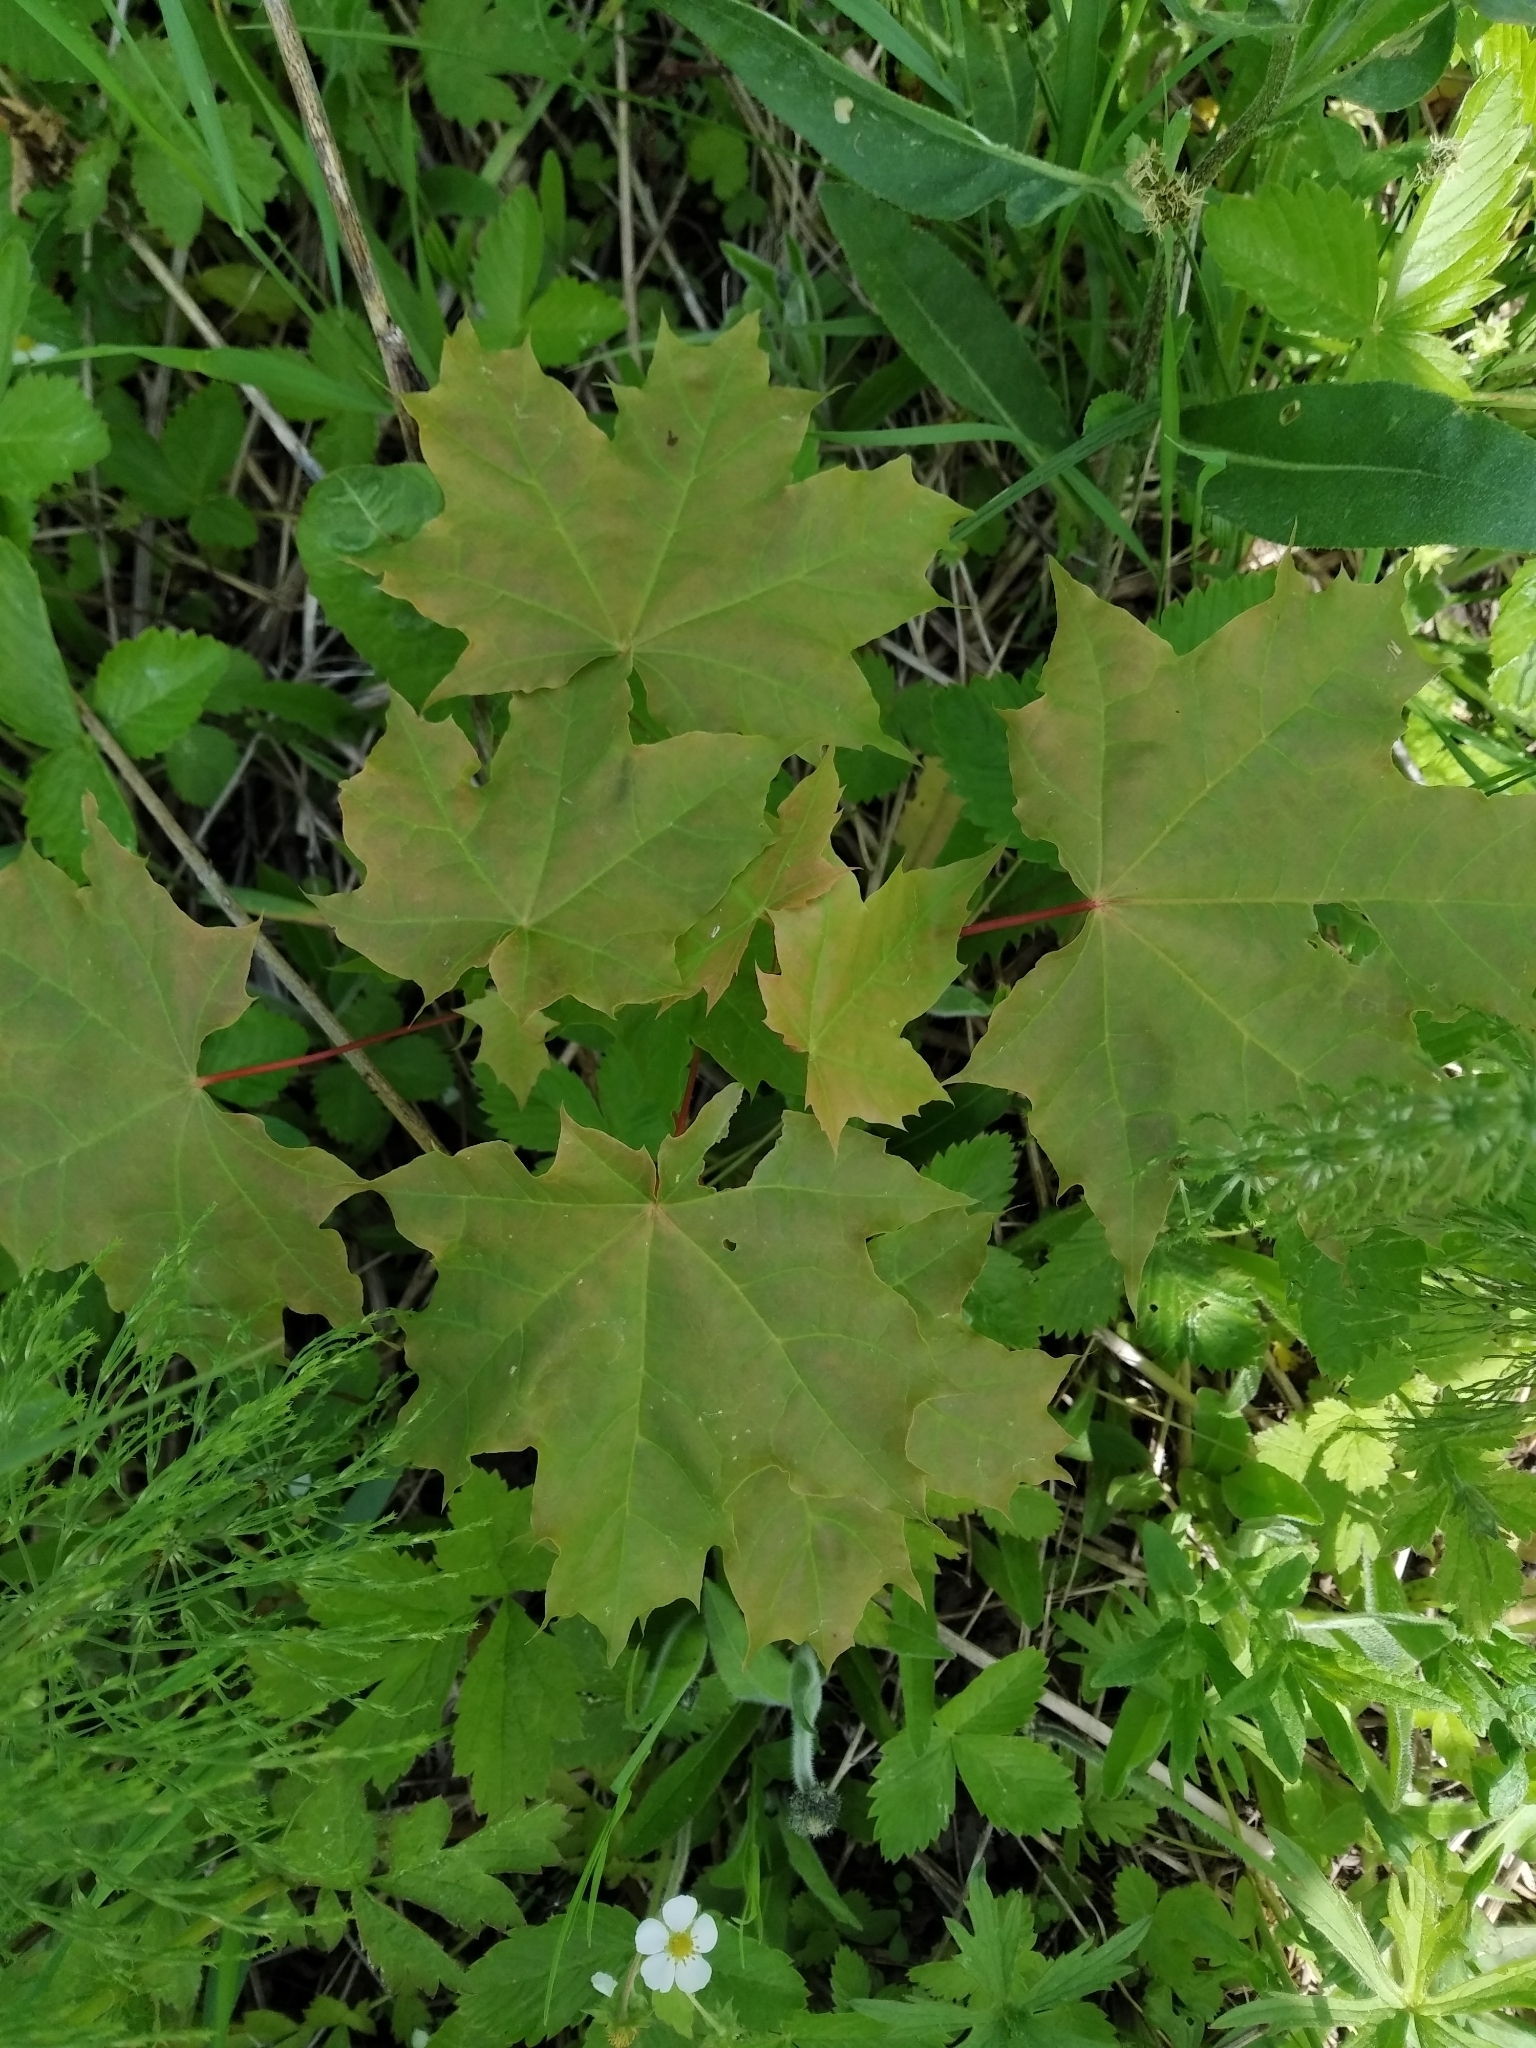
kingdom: Plantae
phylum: Tracheophyta
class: Magnoliopsida
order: Sapindales
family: Sapindaceae
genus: Acer
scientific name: Acer platanoides
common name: Norway maple
